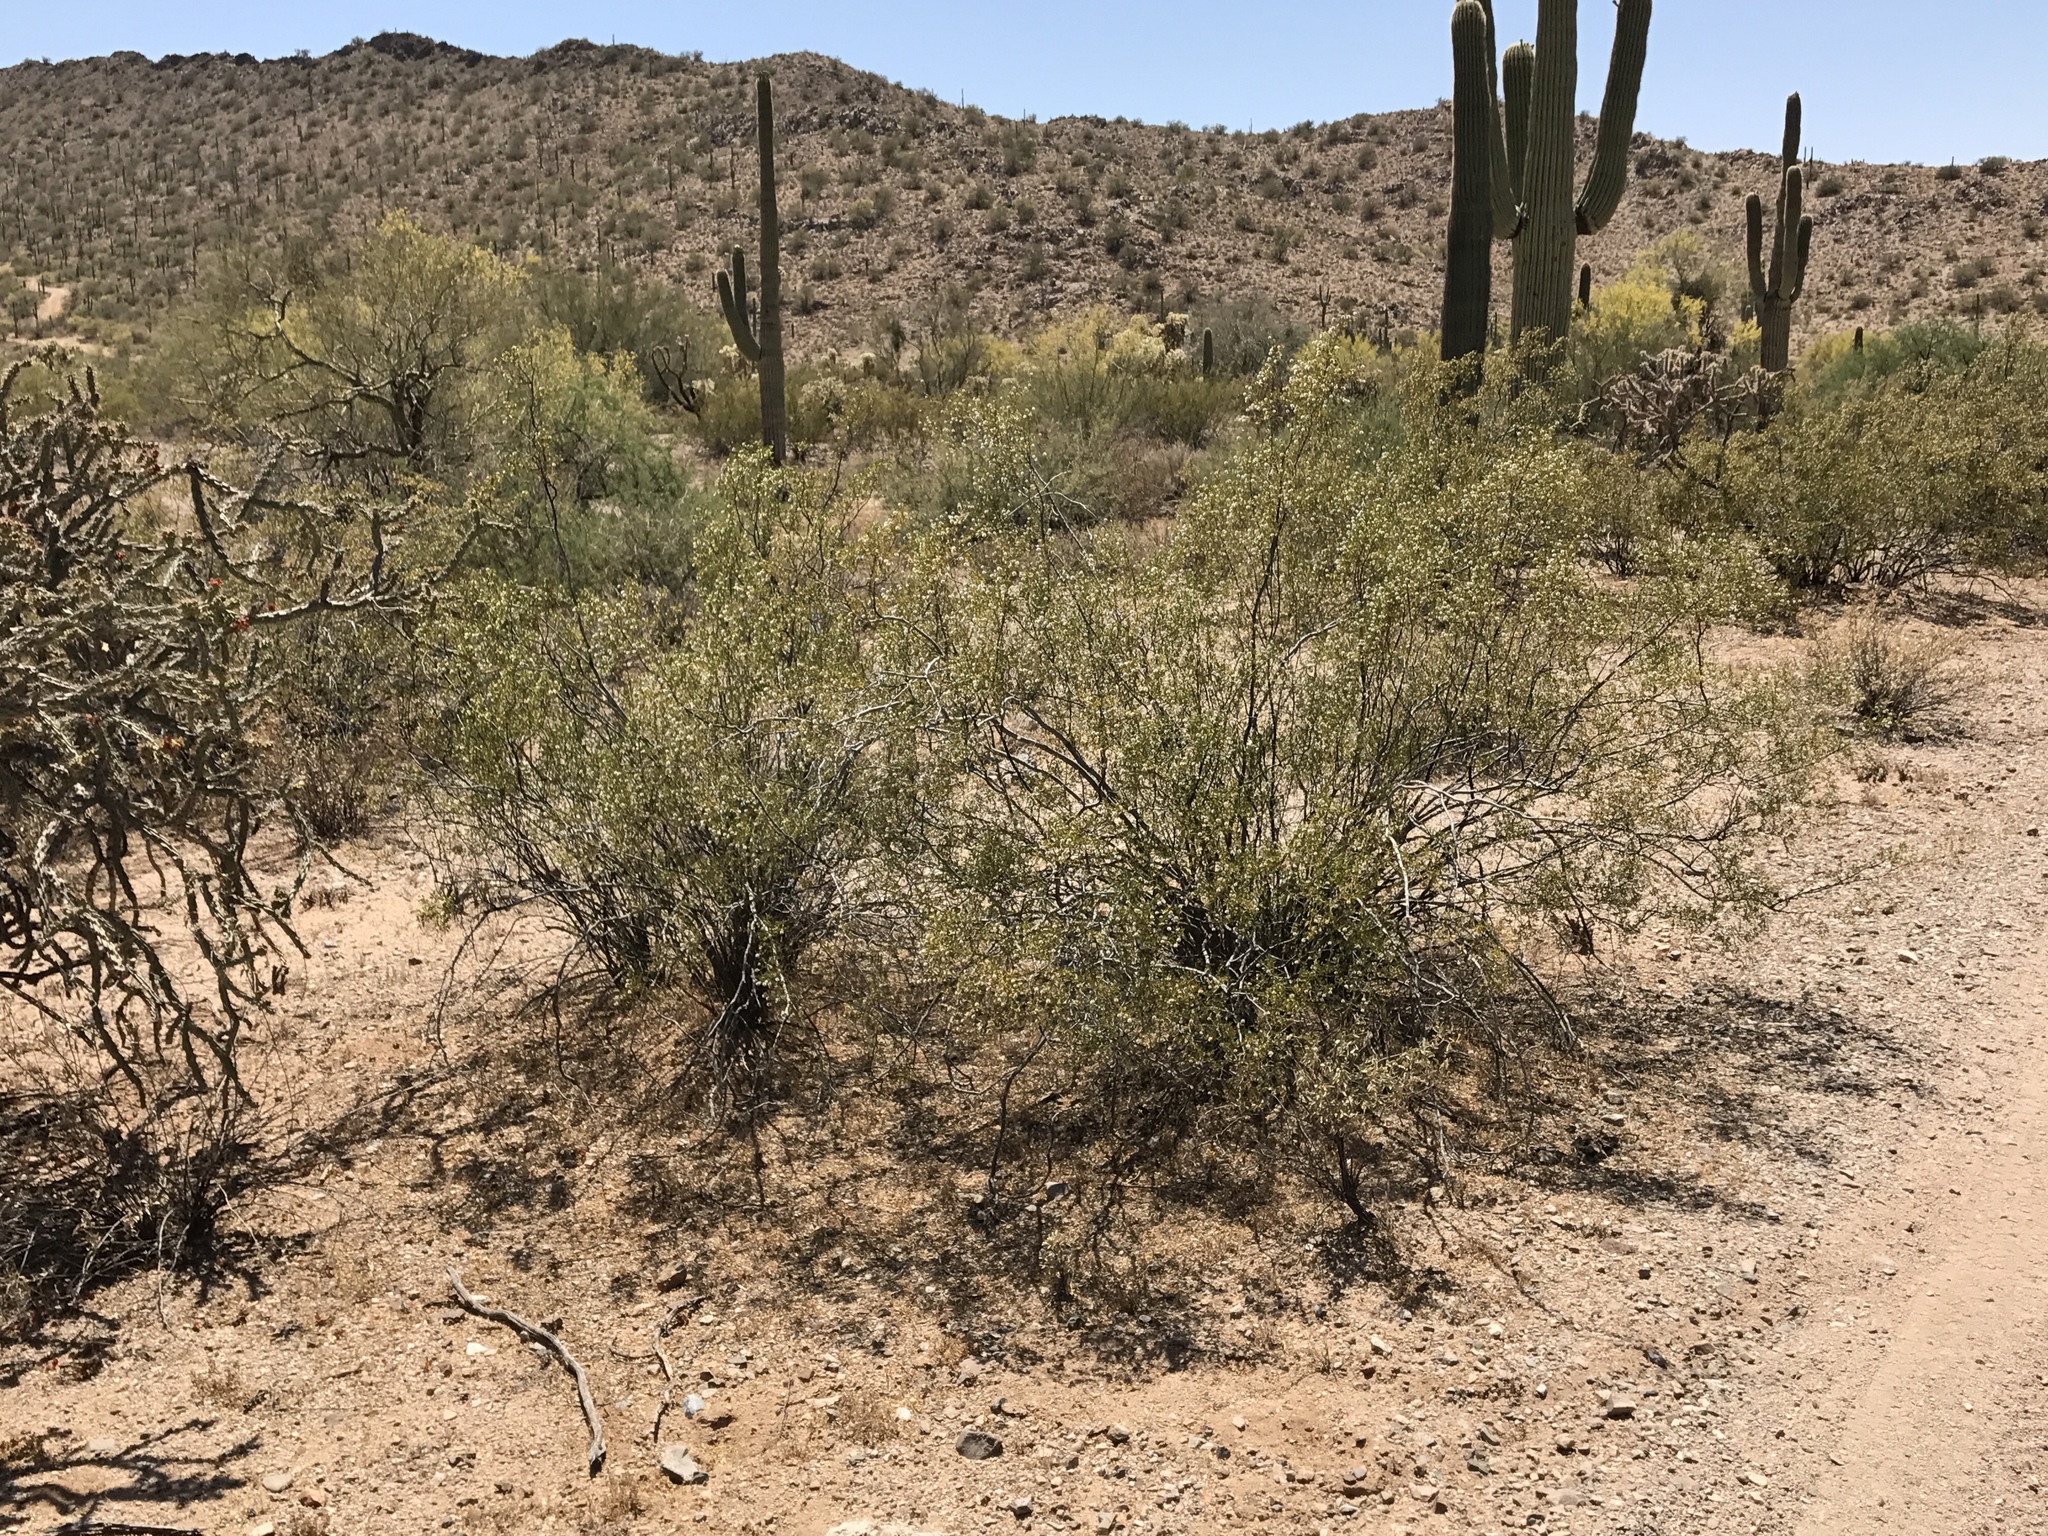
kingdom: Plantae
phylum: Tracheophyta
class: Magnoliopsida
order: Zygophyllales
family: Zygophyllaceae
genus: Larrea
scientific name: Larrea tridentata
